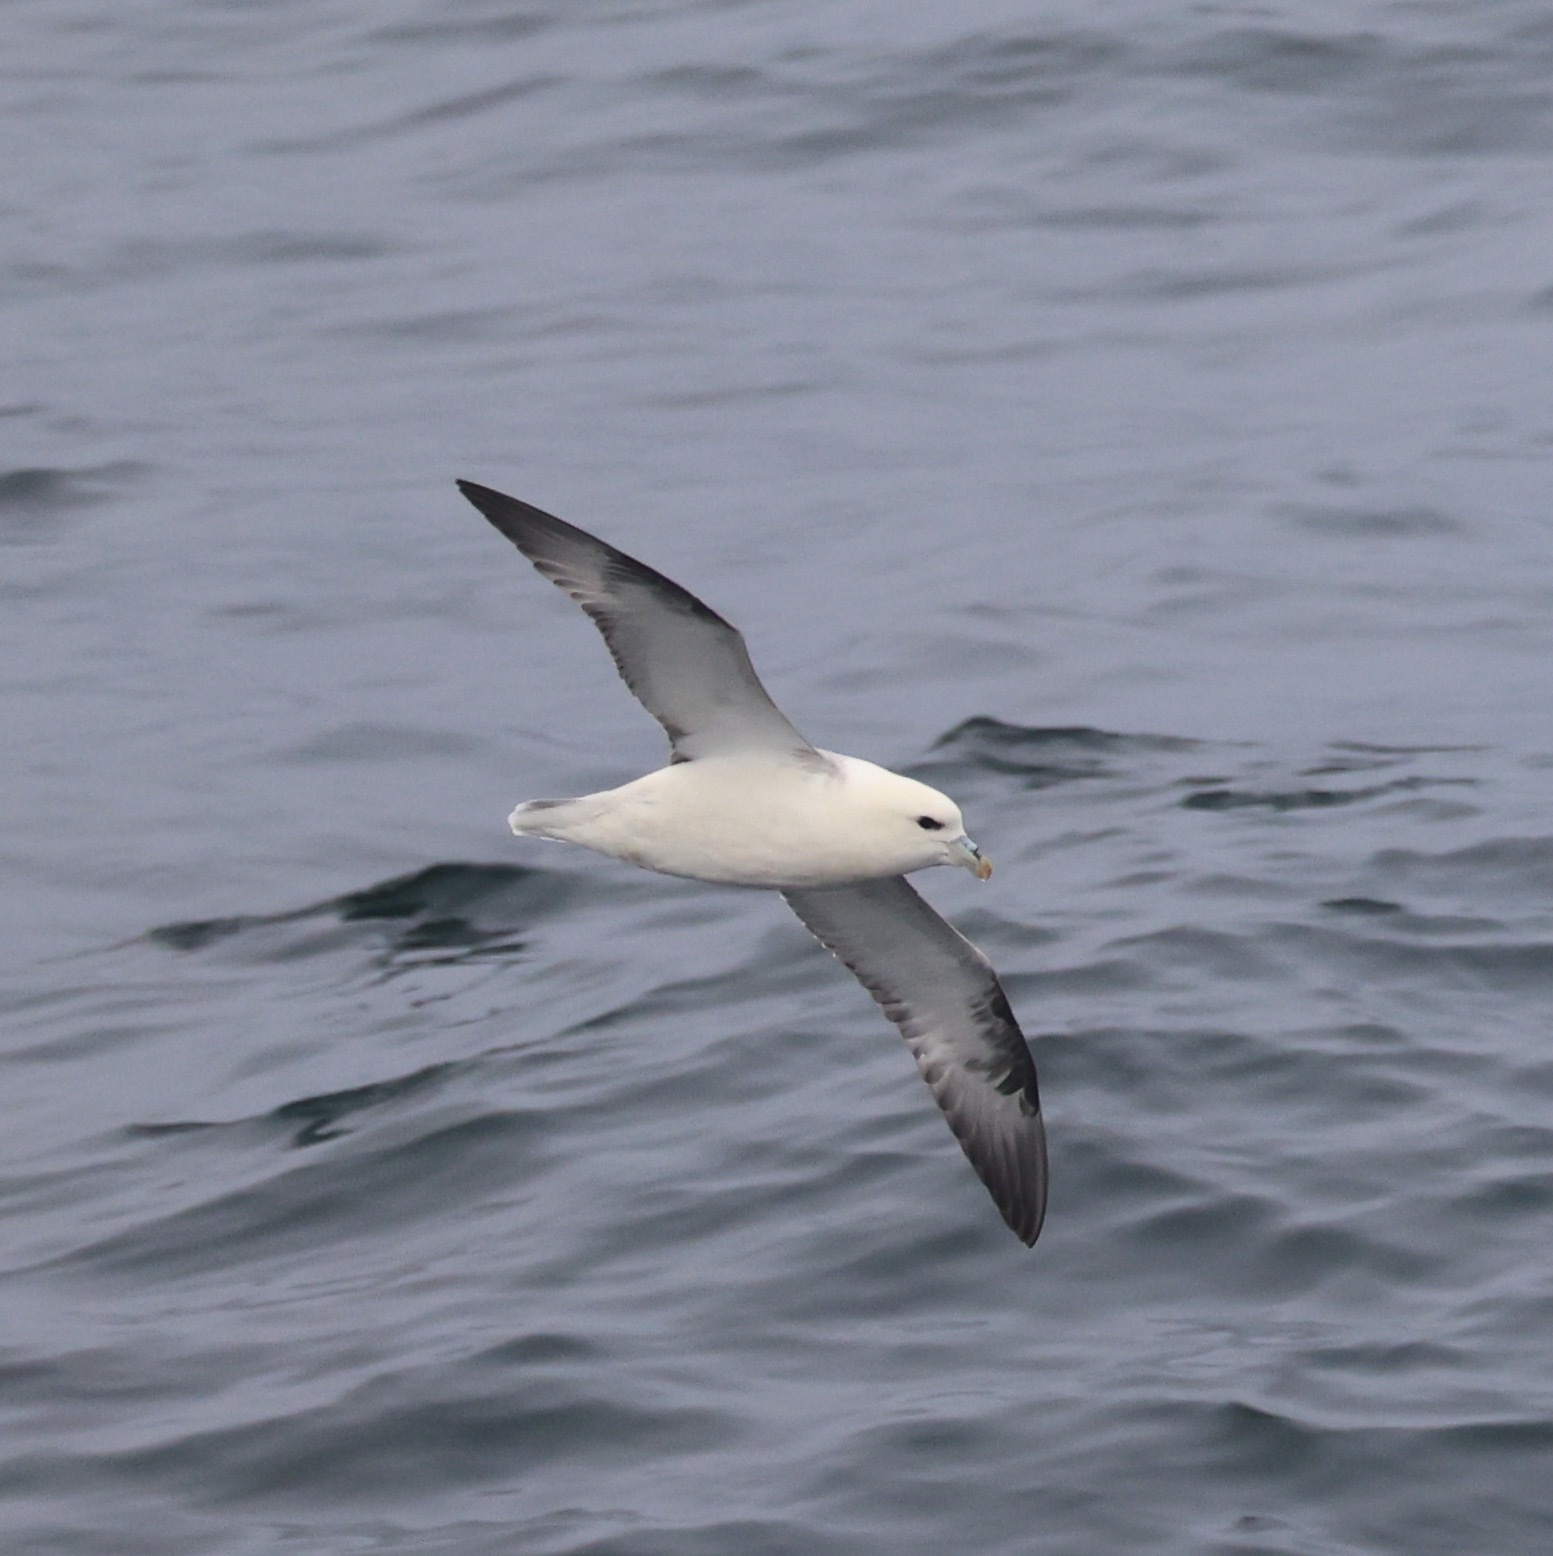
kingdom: Animalia
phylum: Chordata
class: Aves
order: Procellariiformes
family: Procellariidae
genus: Fulmarus
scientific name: Fulmarus glacialis
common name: Northern fulmar
